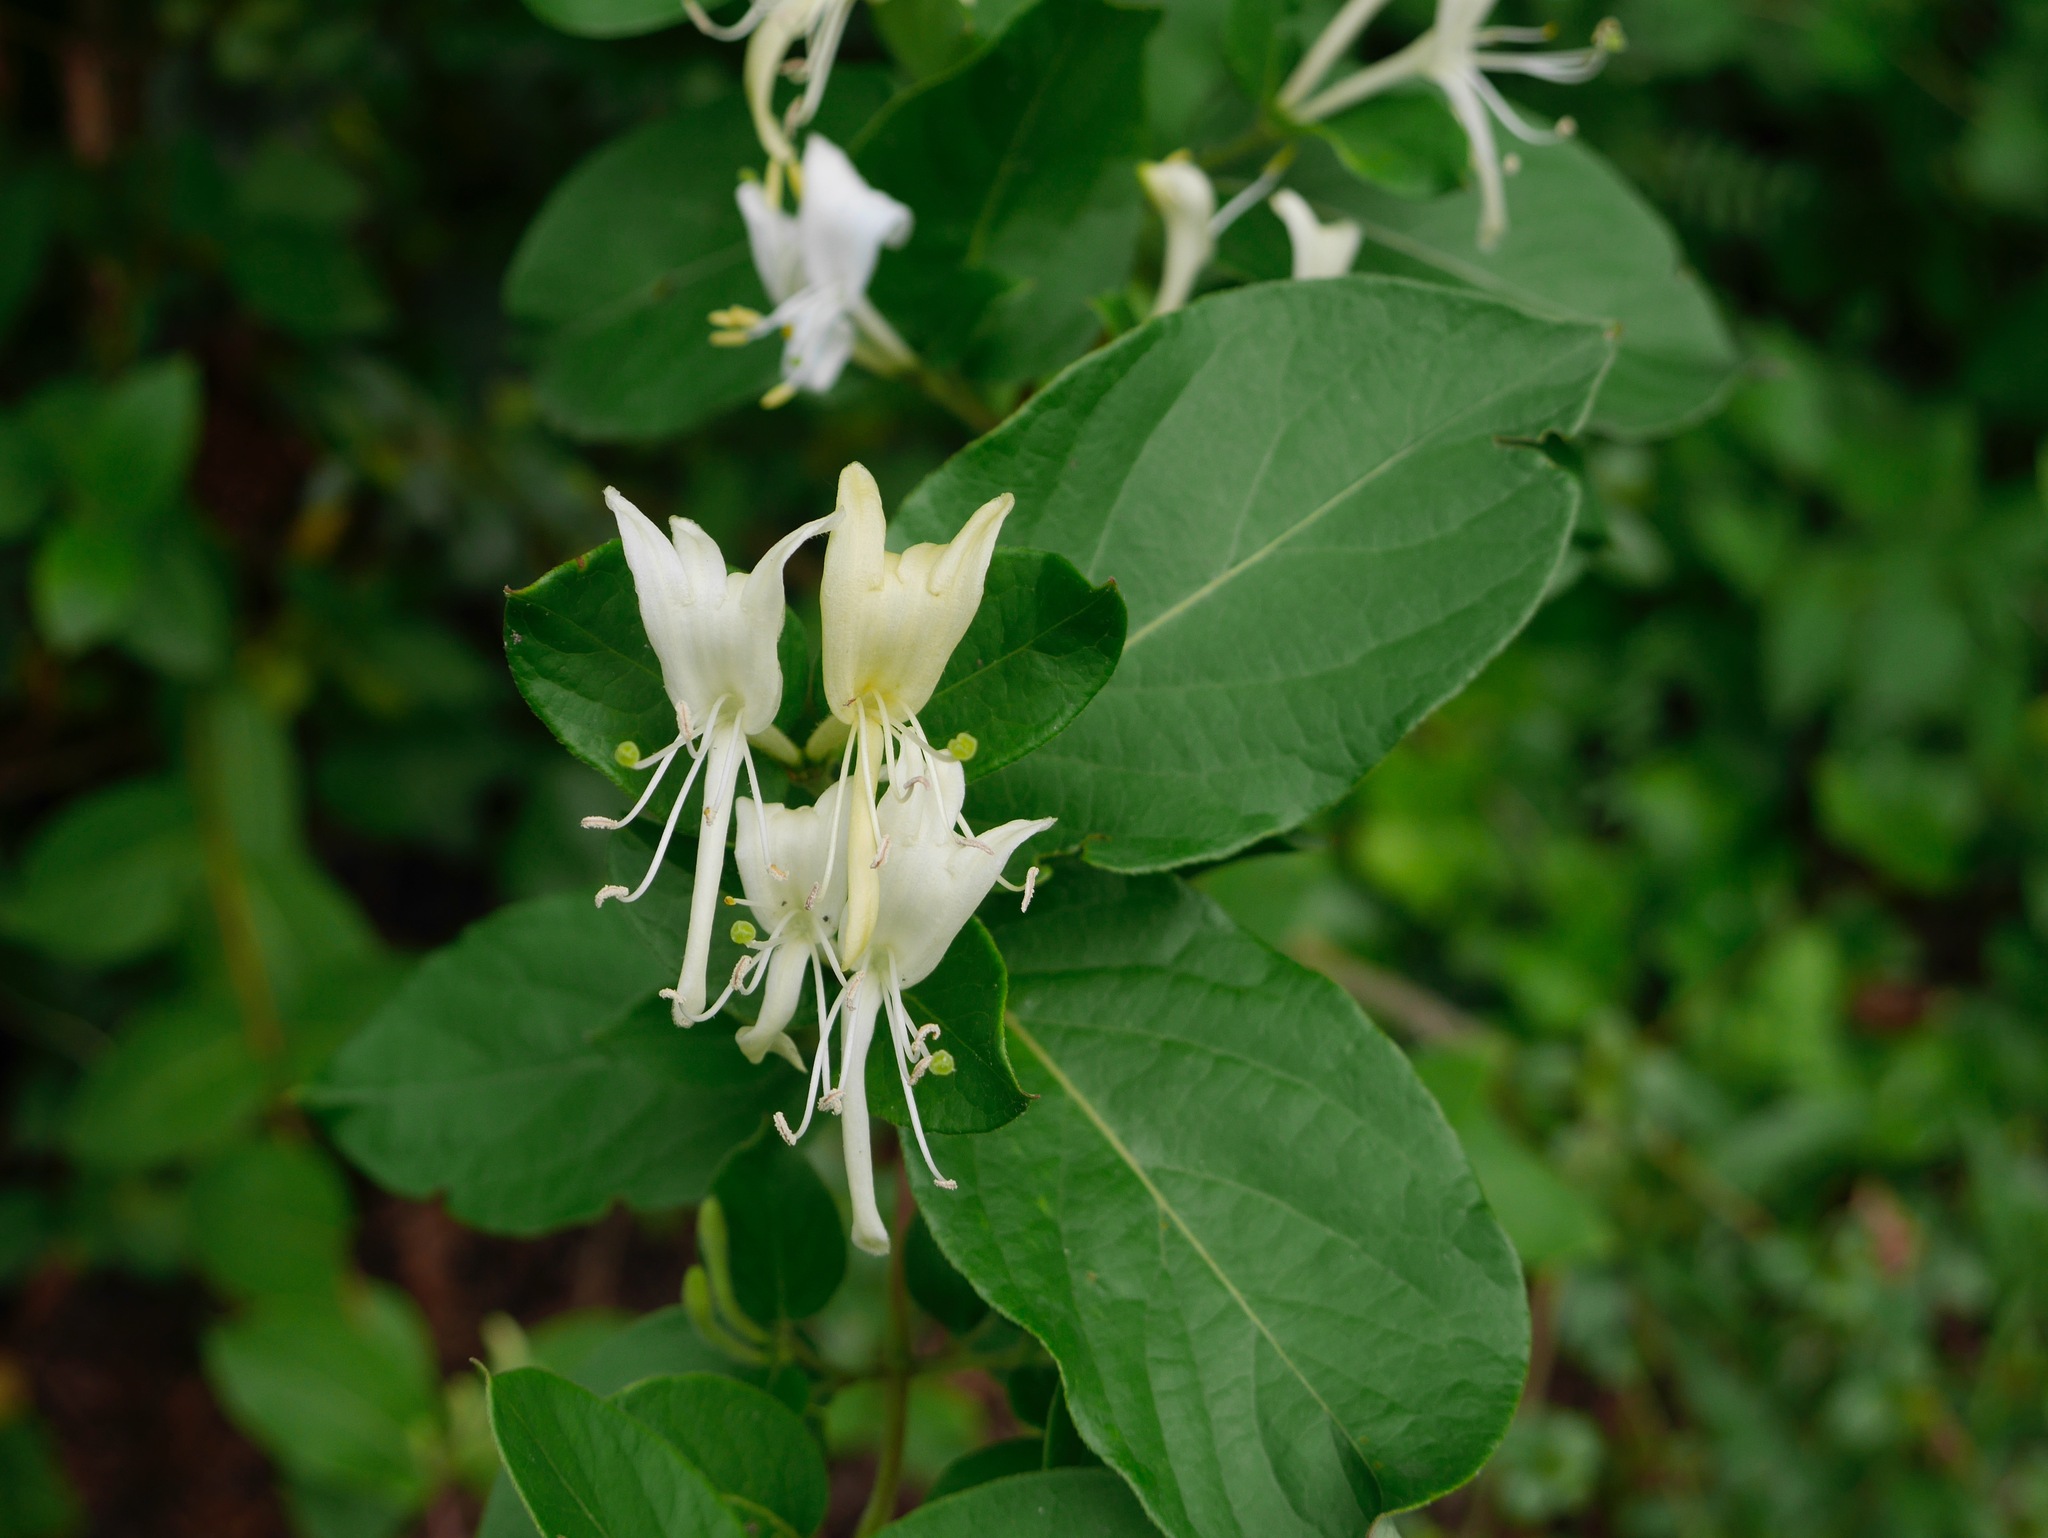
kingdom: Plantae
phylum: Tracheophyta
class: Magnoliopsida
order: Dipsacales
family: Caprifoliaceae
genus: Lonicera
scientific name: Lonicera japonica
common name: Japanese honeysuckle
